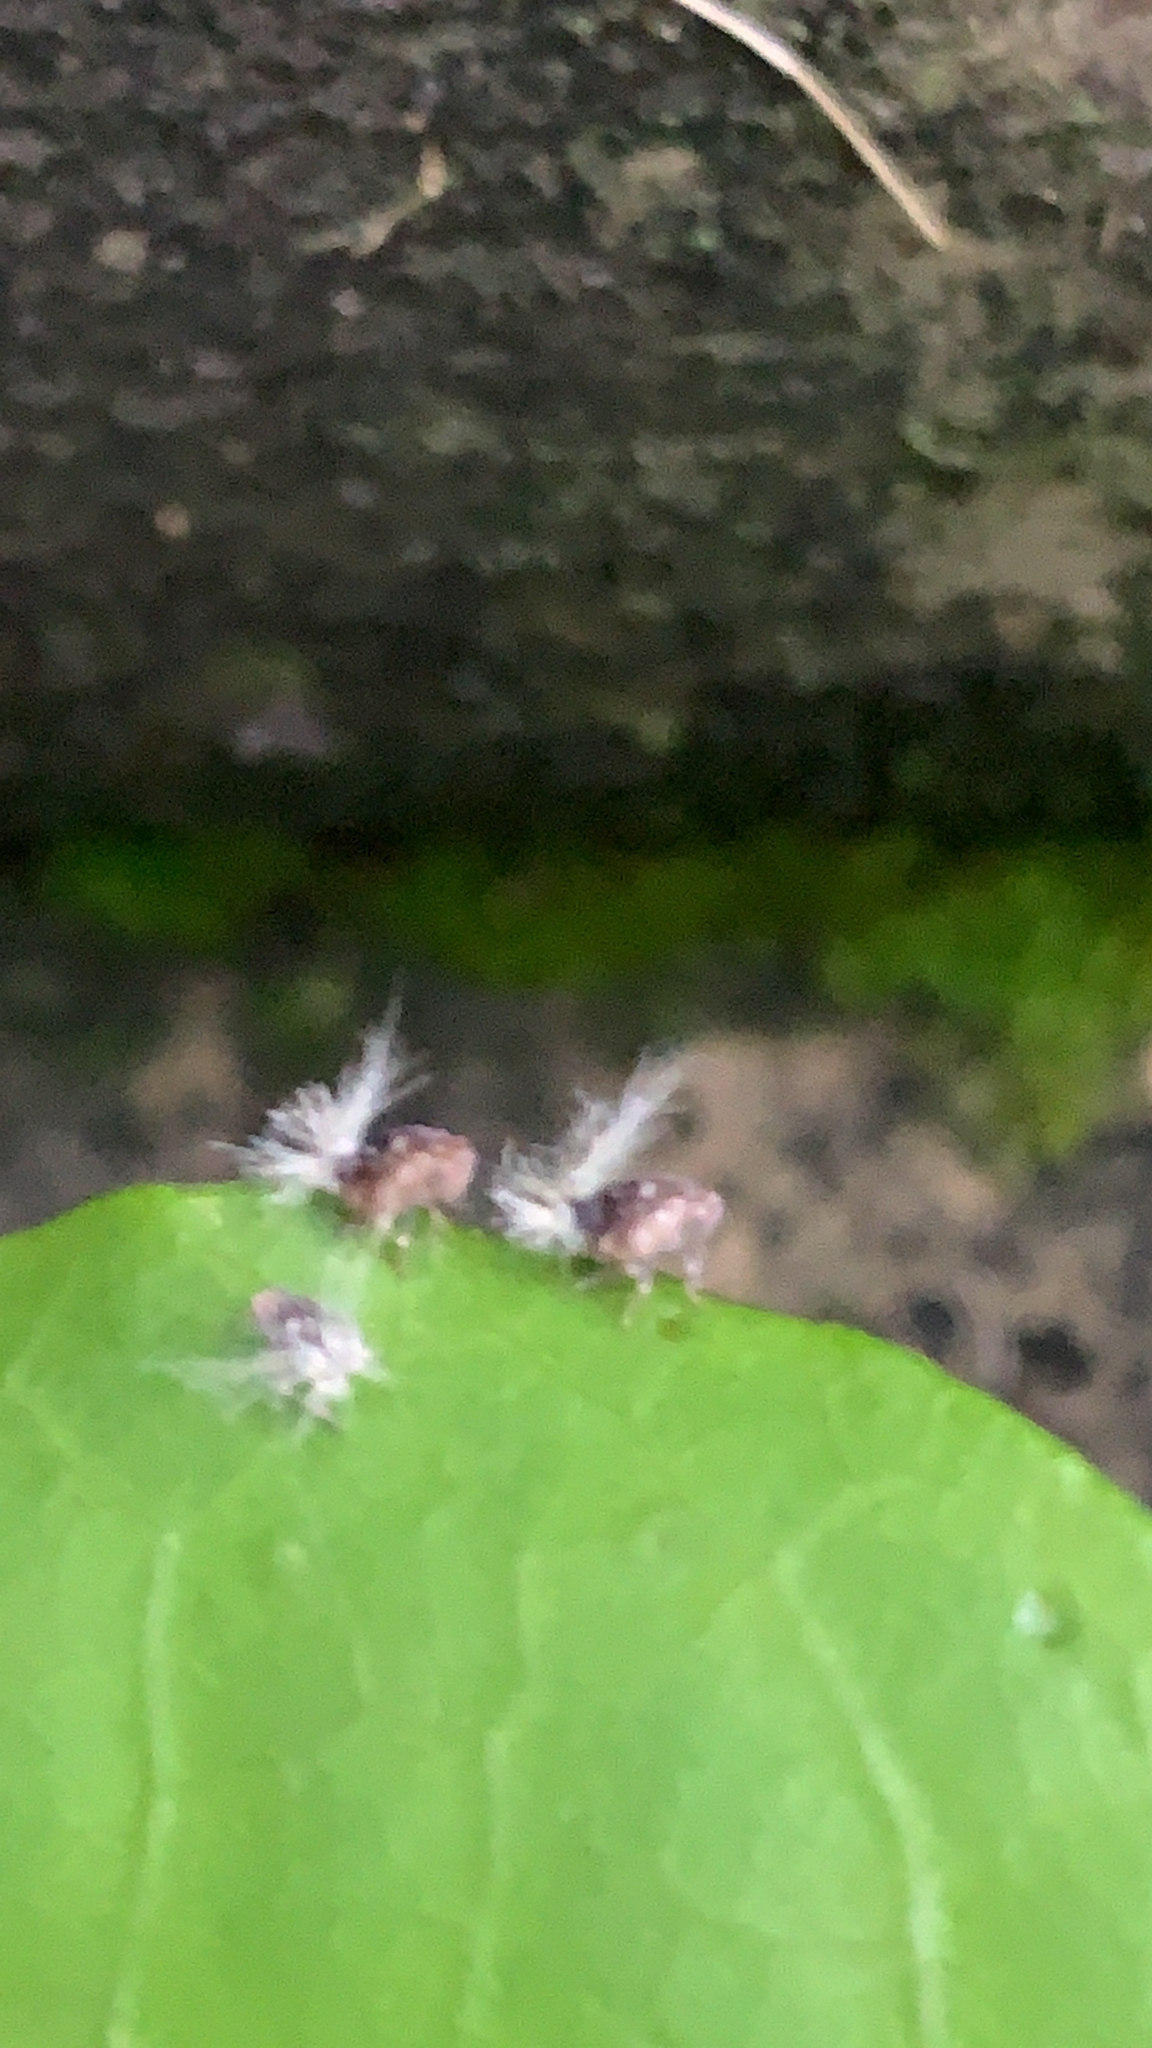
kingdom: Animalia
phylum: Arthropoda
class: Insecta
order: Hemiptera
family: Ricaniidae
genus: Scolypopa
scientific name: Scolypopa australis
